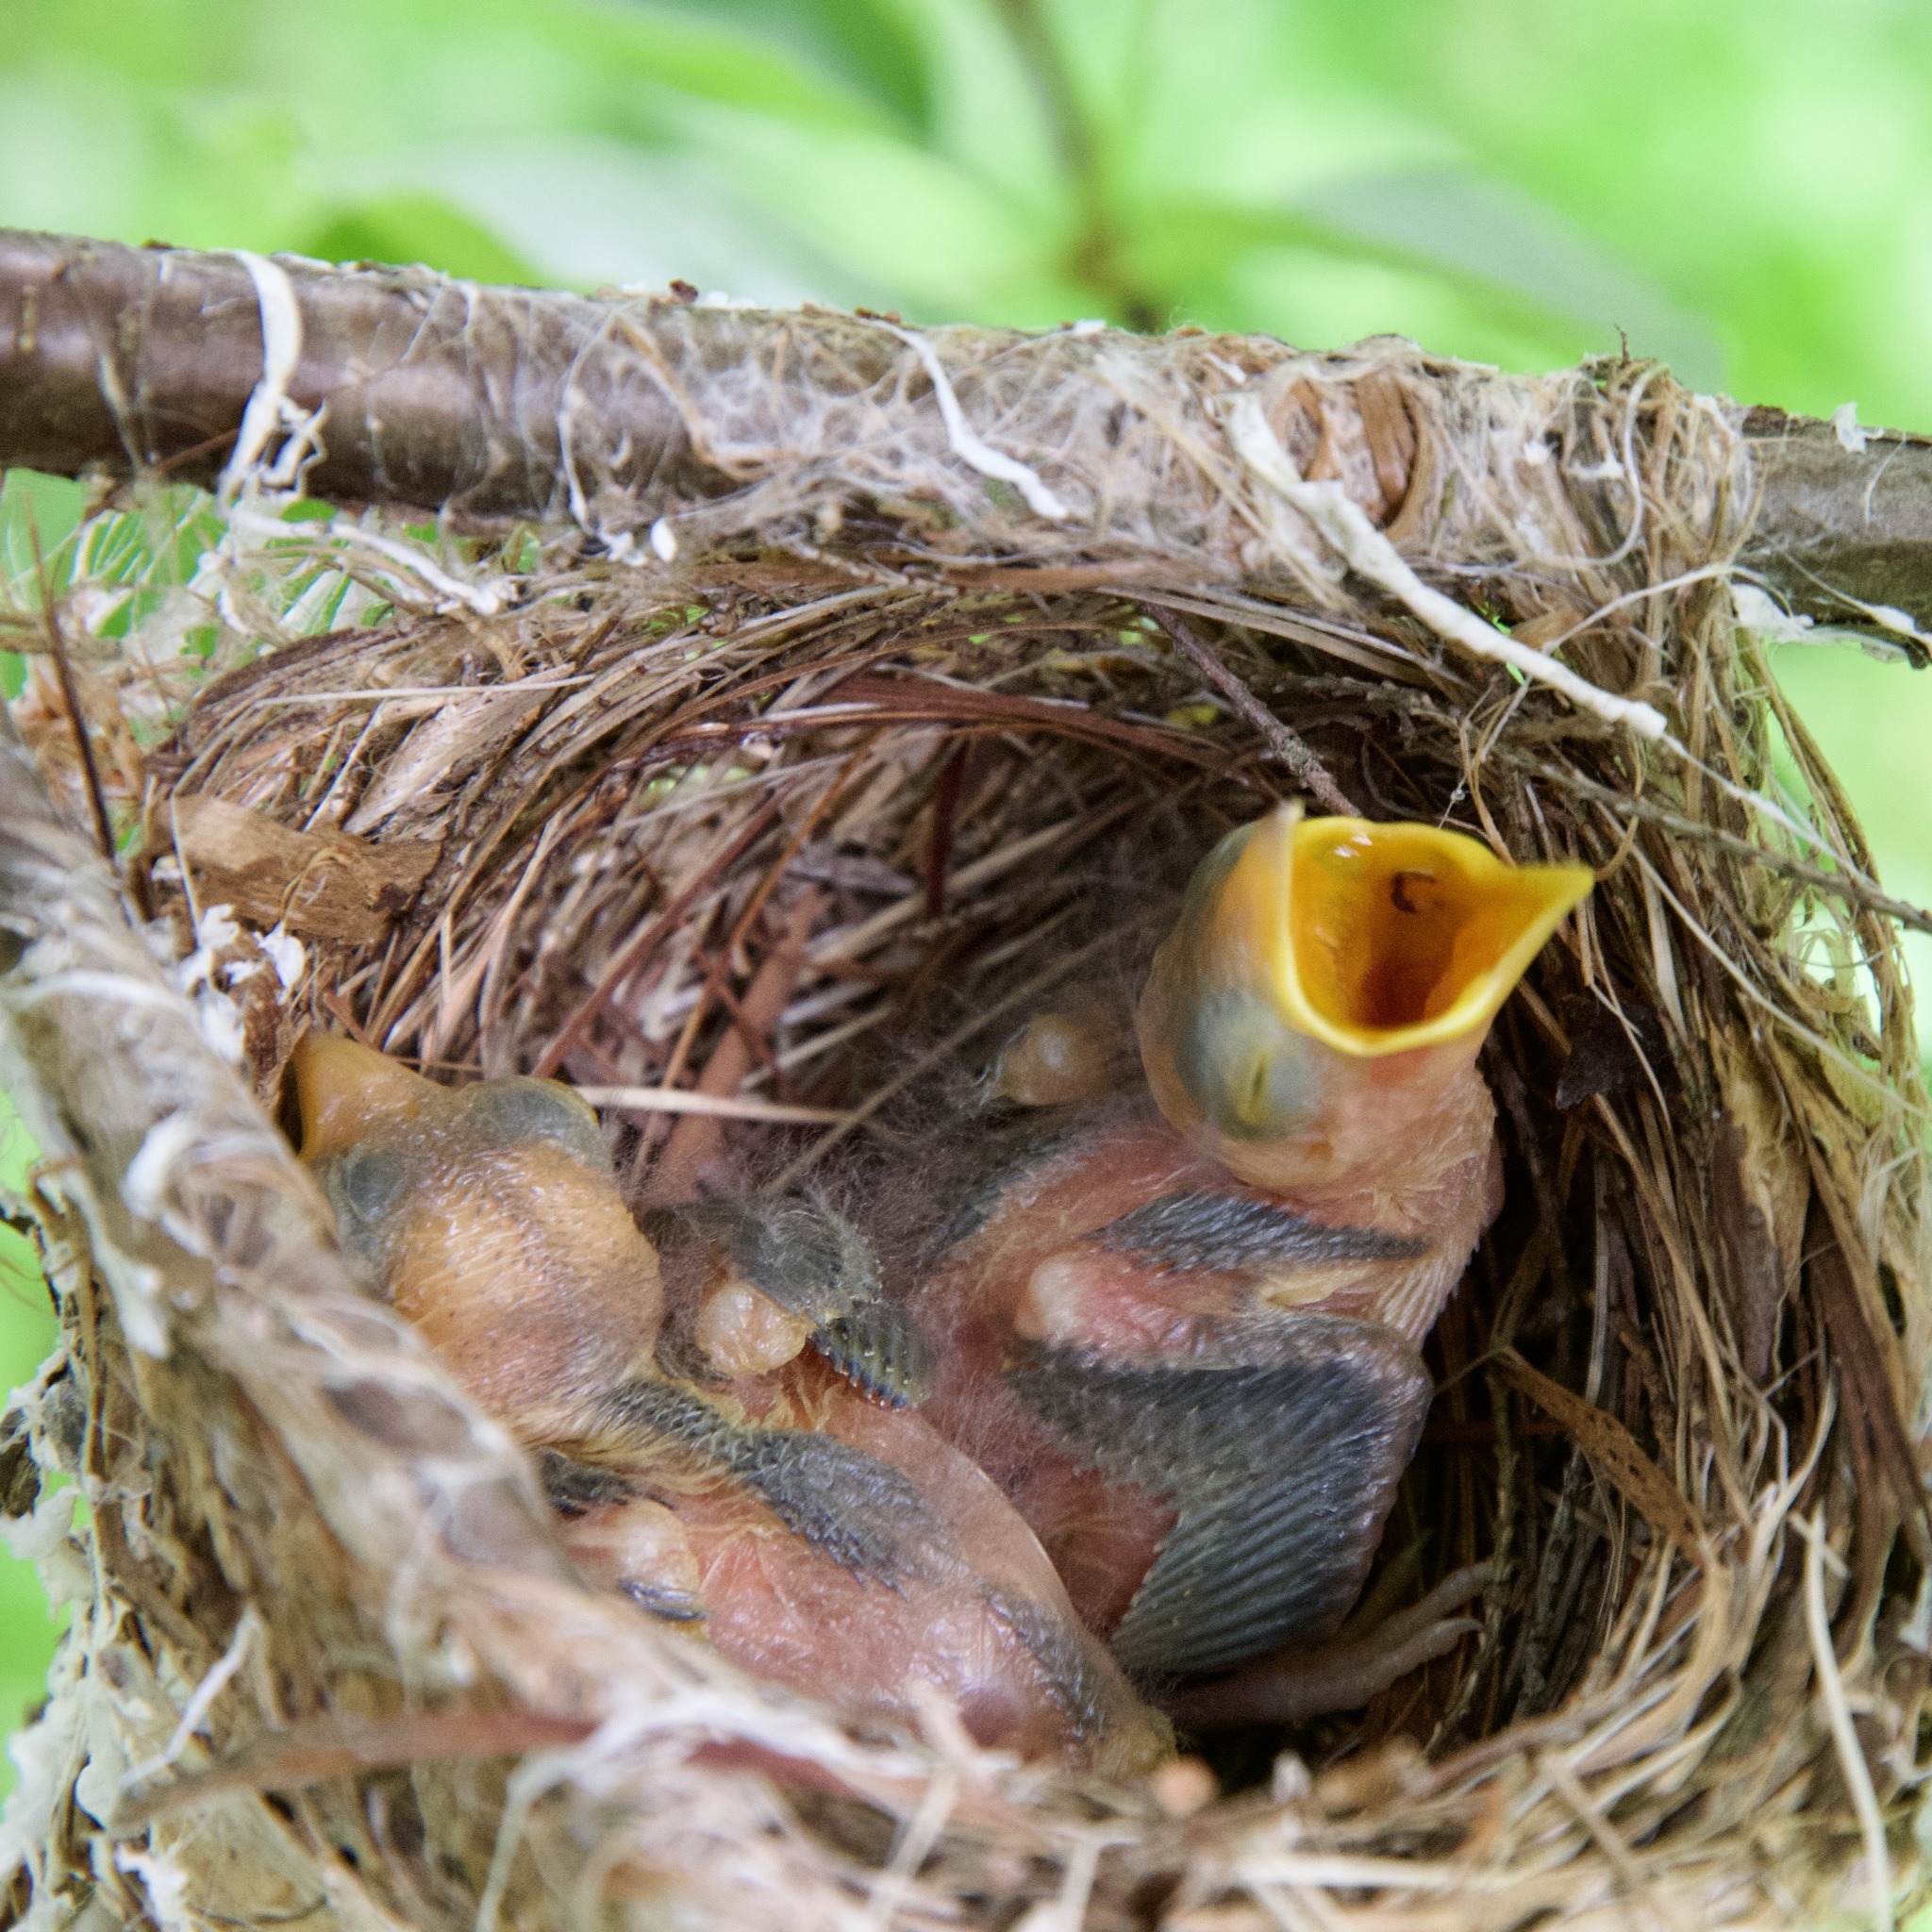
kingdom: Animalia
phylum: Chordata
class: Aves
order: Passeriformes
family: Vireonidae
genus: Vireo
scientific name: Vireo olivaceus
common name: Red-eyed vireo
